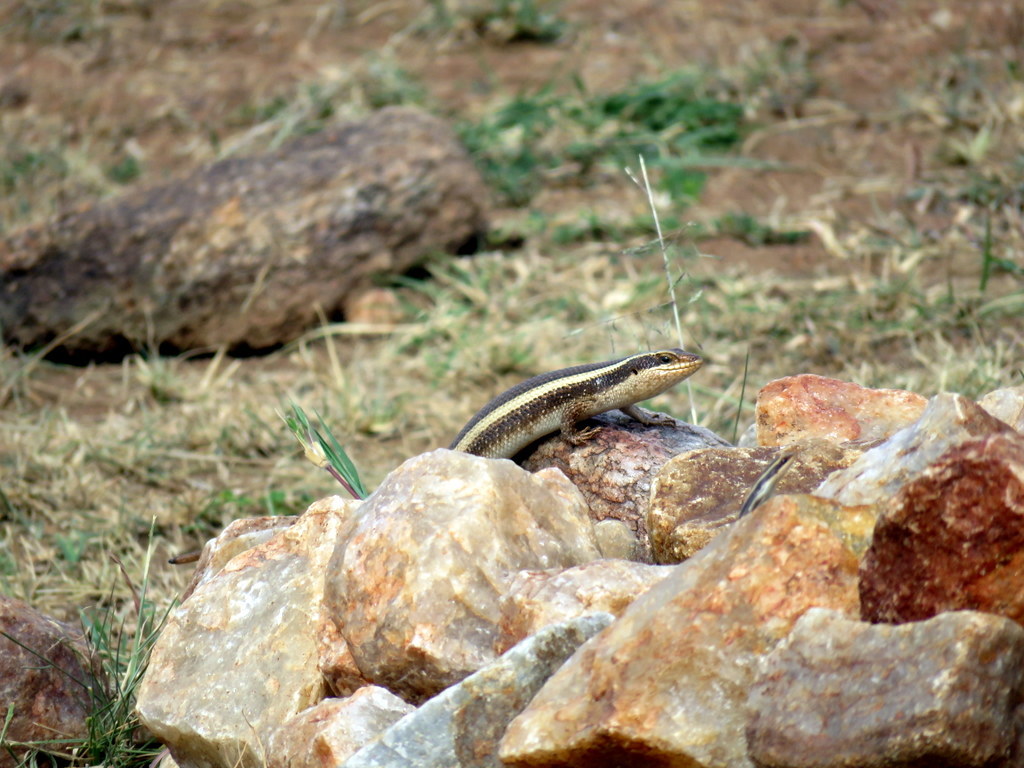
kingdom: Animalia
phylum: Chordata
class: Squamata
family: Scincidae
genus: Trachylepis
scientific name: Trachylepis striata
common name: African striped mabuya
